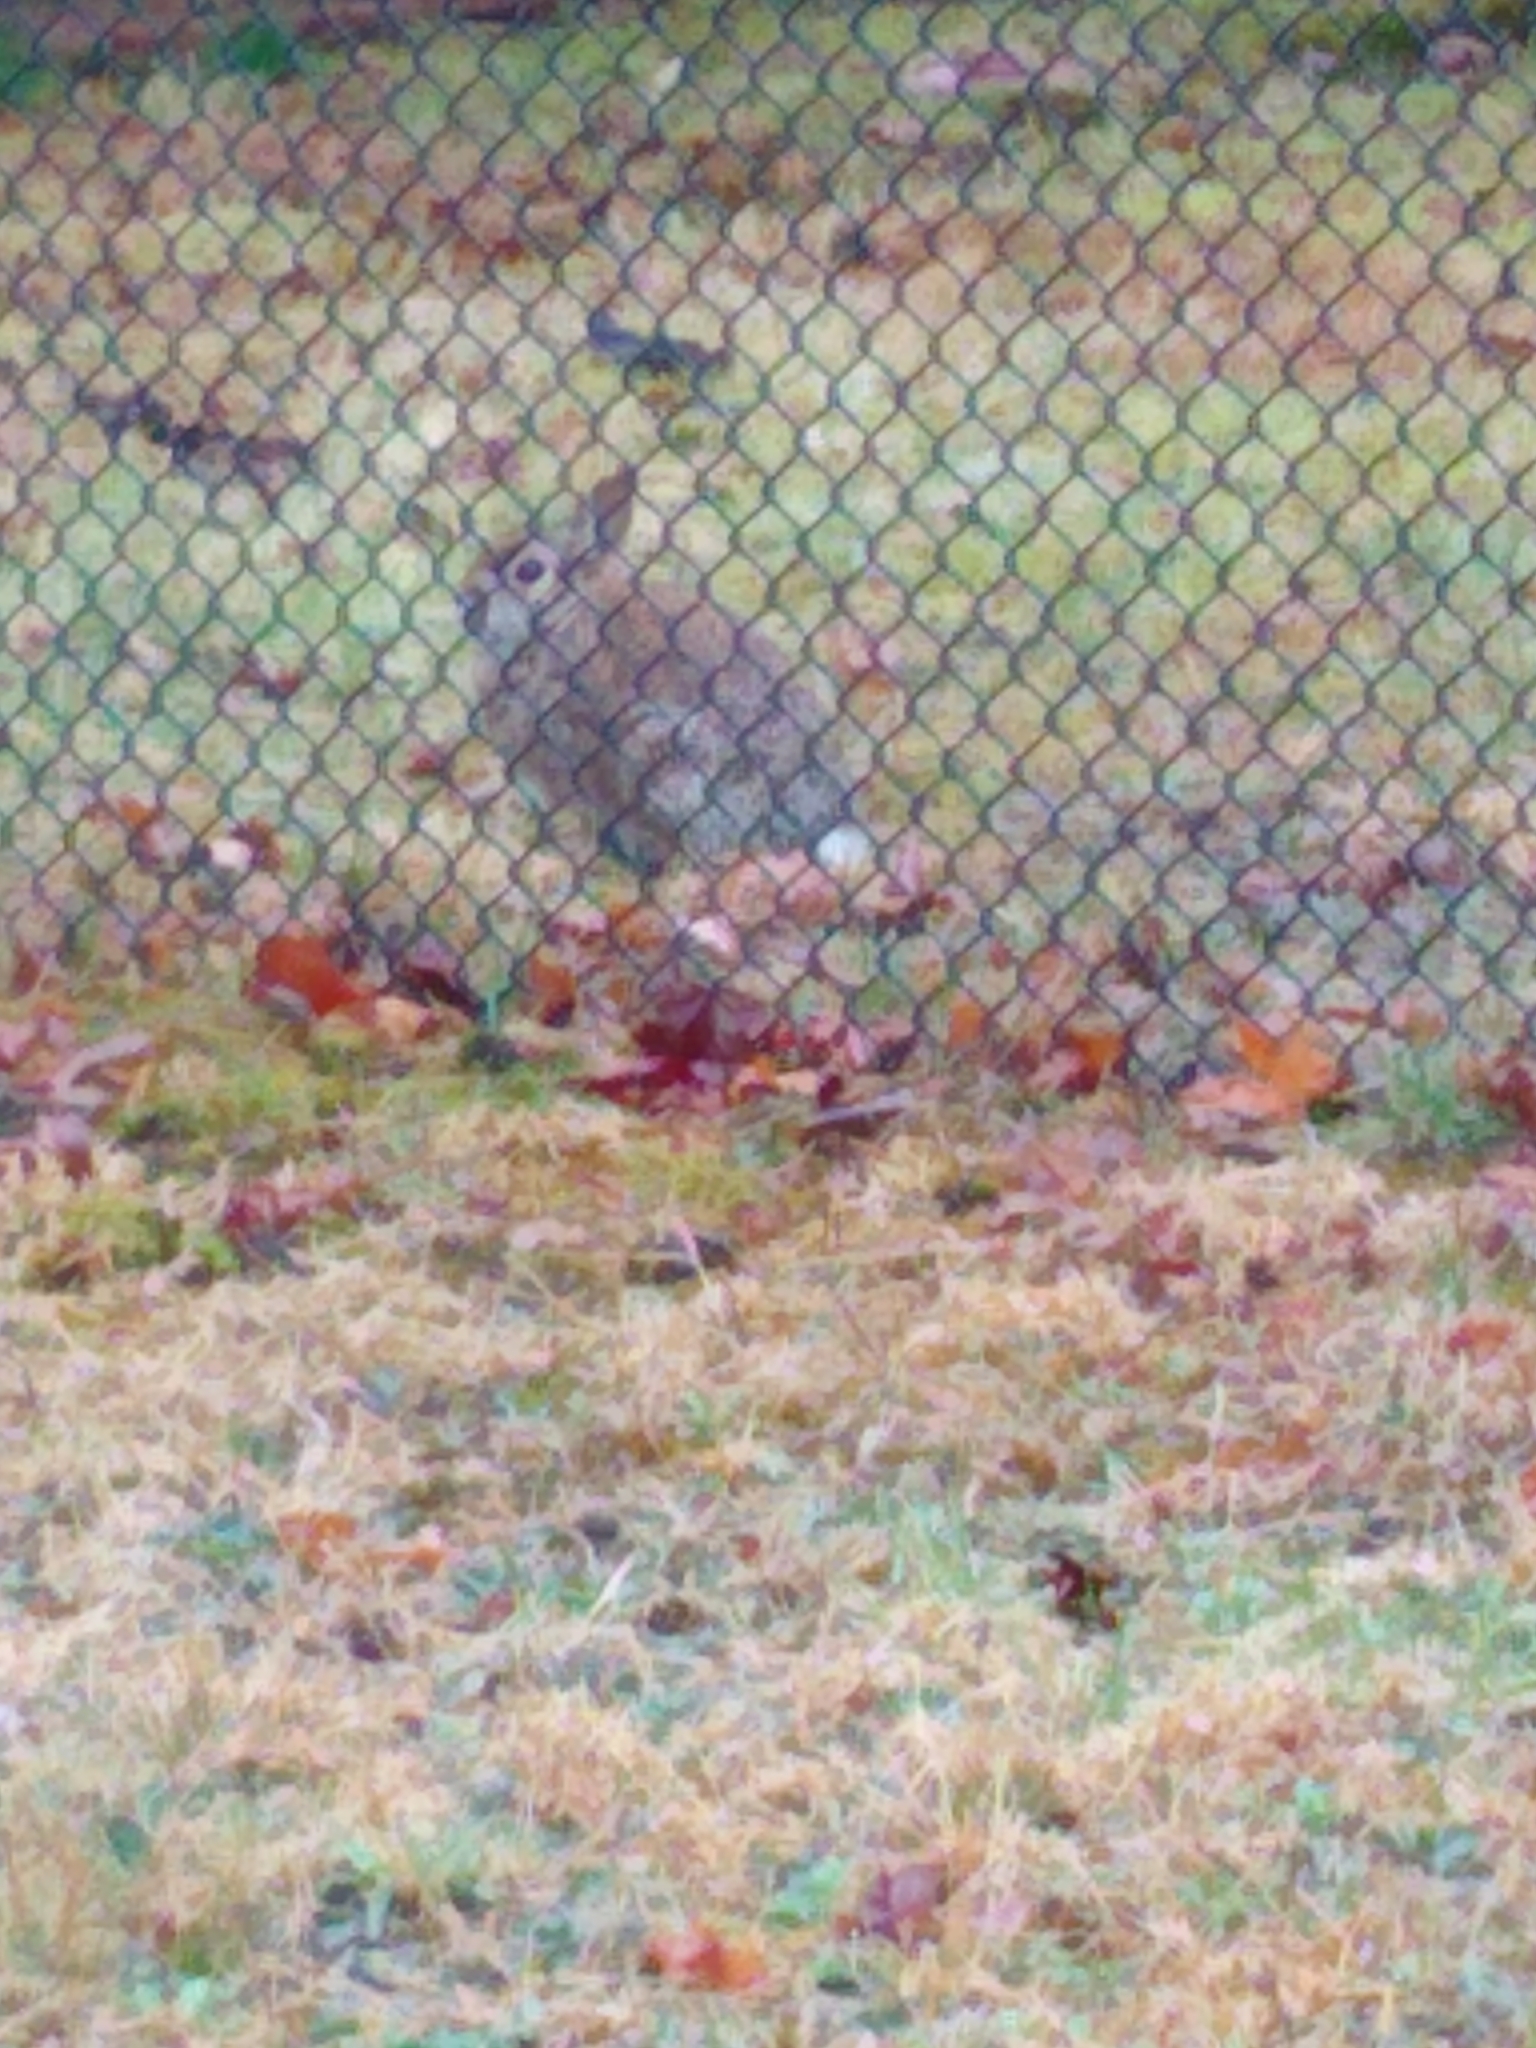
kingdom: Animalia
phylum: Chordata
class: Mammalia
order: Lagomorpha
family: Leporidae
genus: Sylvilagus
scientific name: Sylvilagus floridanus
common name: Eastern cottontail
